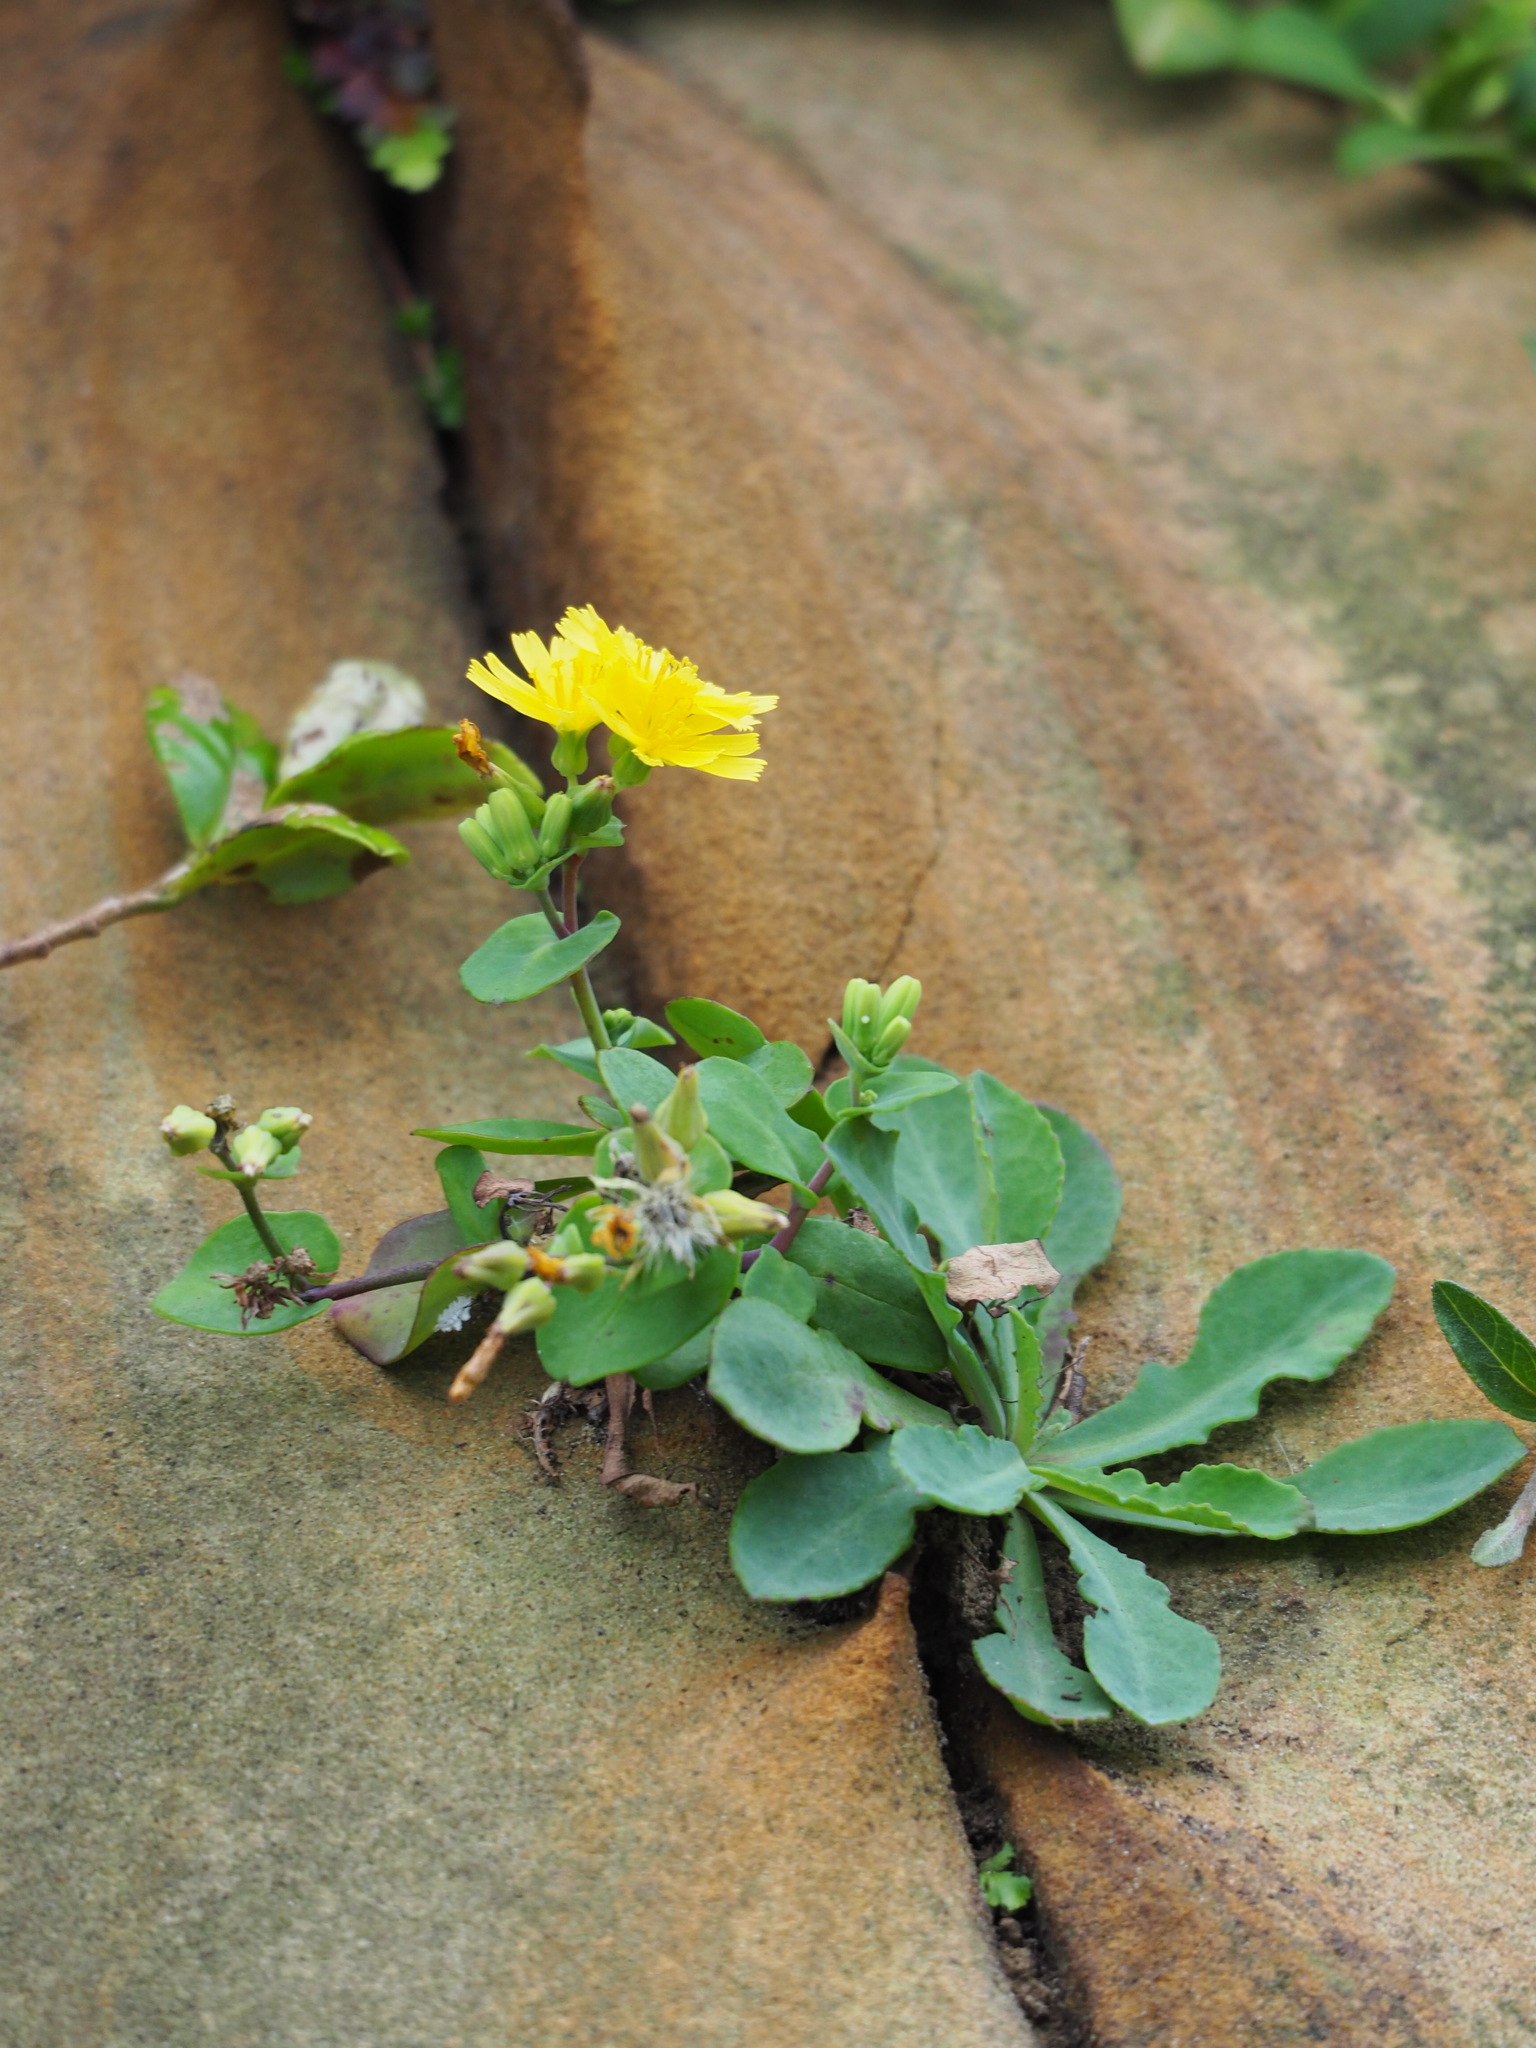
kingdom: Plantae
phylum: Tracheophyta
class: Magnoliopsida
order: Asterales
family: Asteraceae
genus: Crepidiastrum
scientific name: Crepidiastrum taiwanianum
